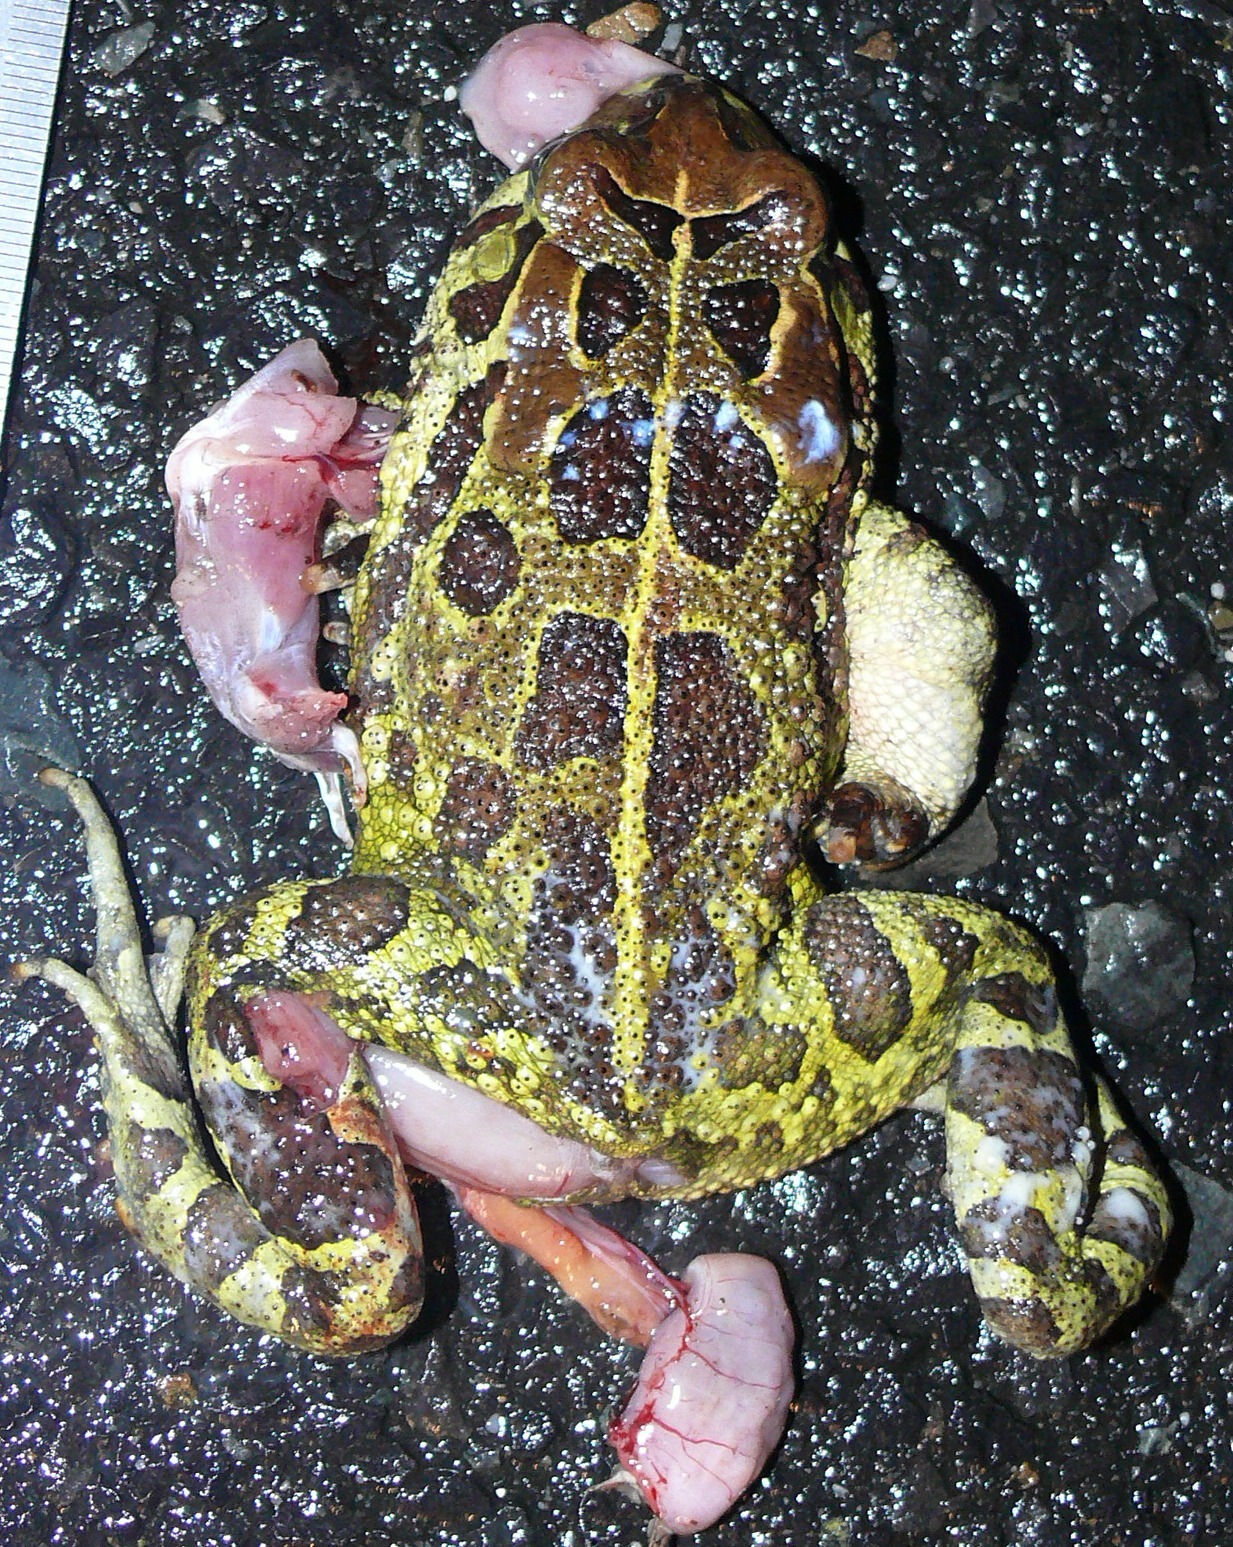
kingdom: Animalia
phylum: Chordata
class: Amphibia
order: Anura
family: Bufonidae
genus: Sclerophrys
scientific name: Sclerophrys pantherina
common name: Panther toad
